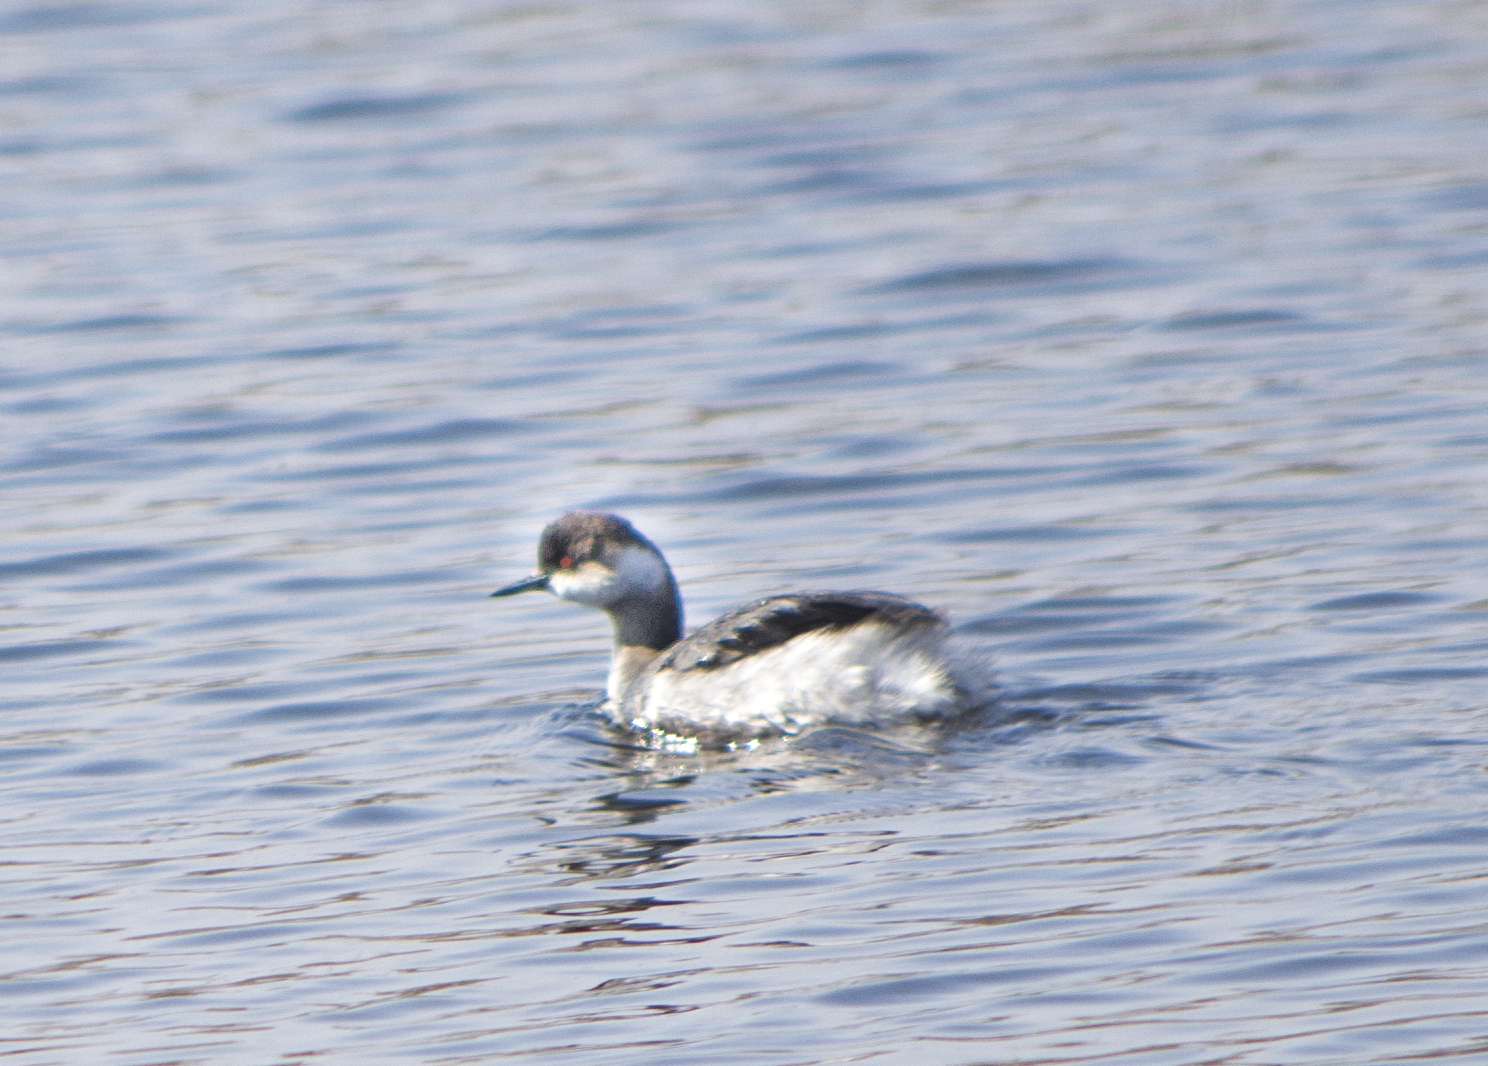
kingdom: Animalia
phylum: Chordata
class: Aves
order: Podicipediformes
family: Podicipedidae
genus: Podiceps
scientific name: Podiceps nigricollis
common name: Black-necked grebe
